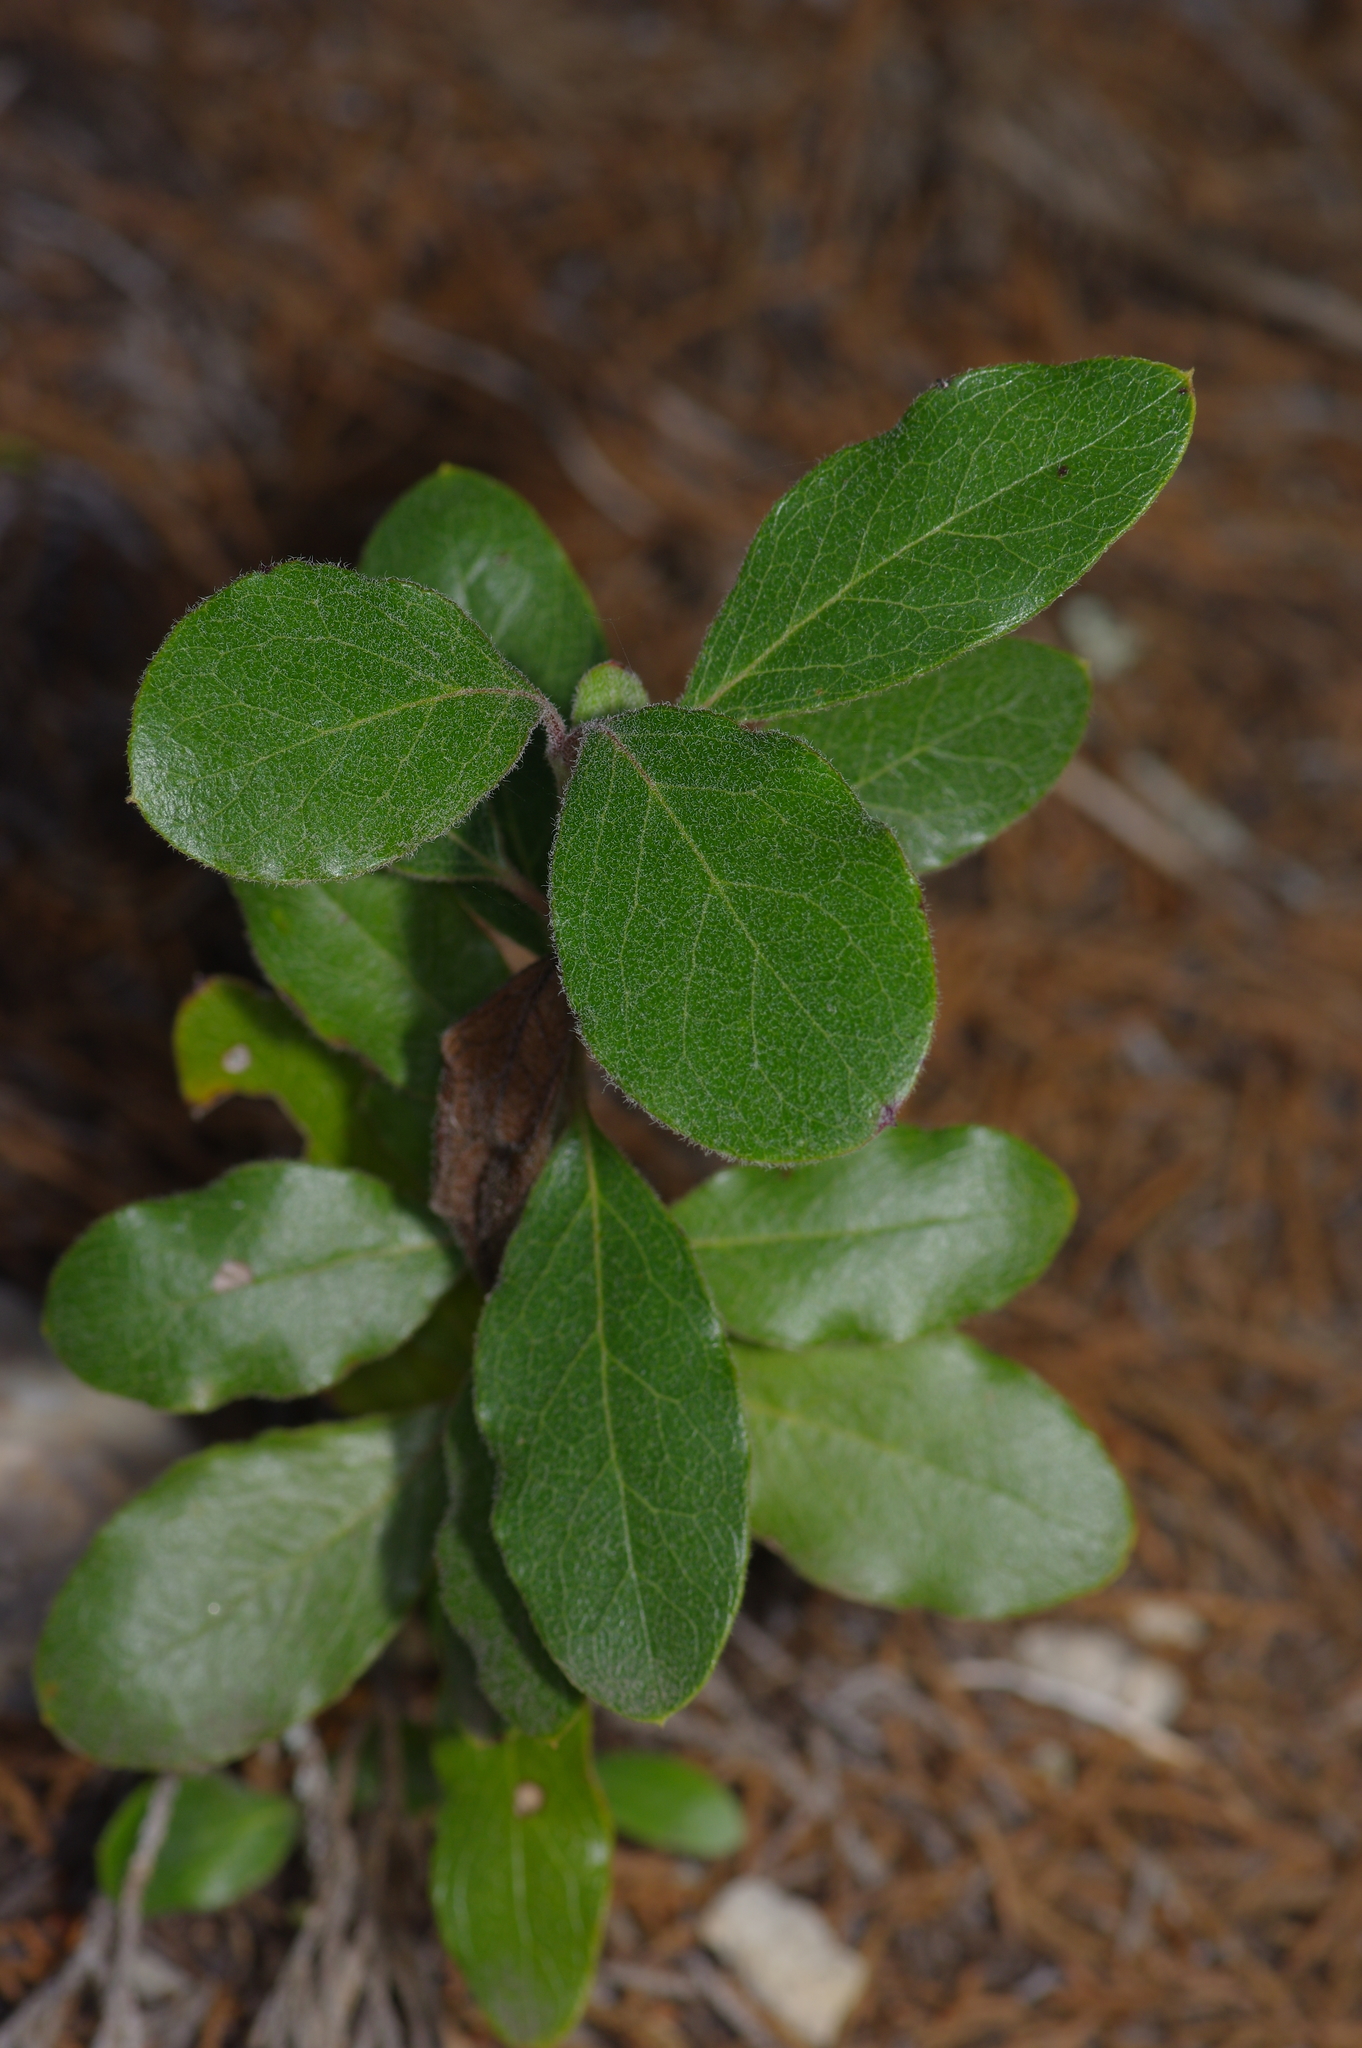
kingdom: Plantae
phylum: Tracheophyta
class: Magnoliopsida
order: Garryales
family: Garryaceae
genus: Garrya
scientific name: Garrya lindheimeri
